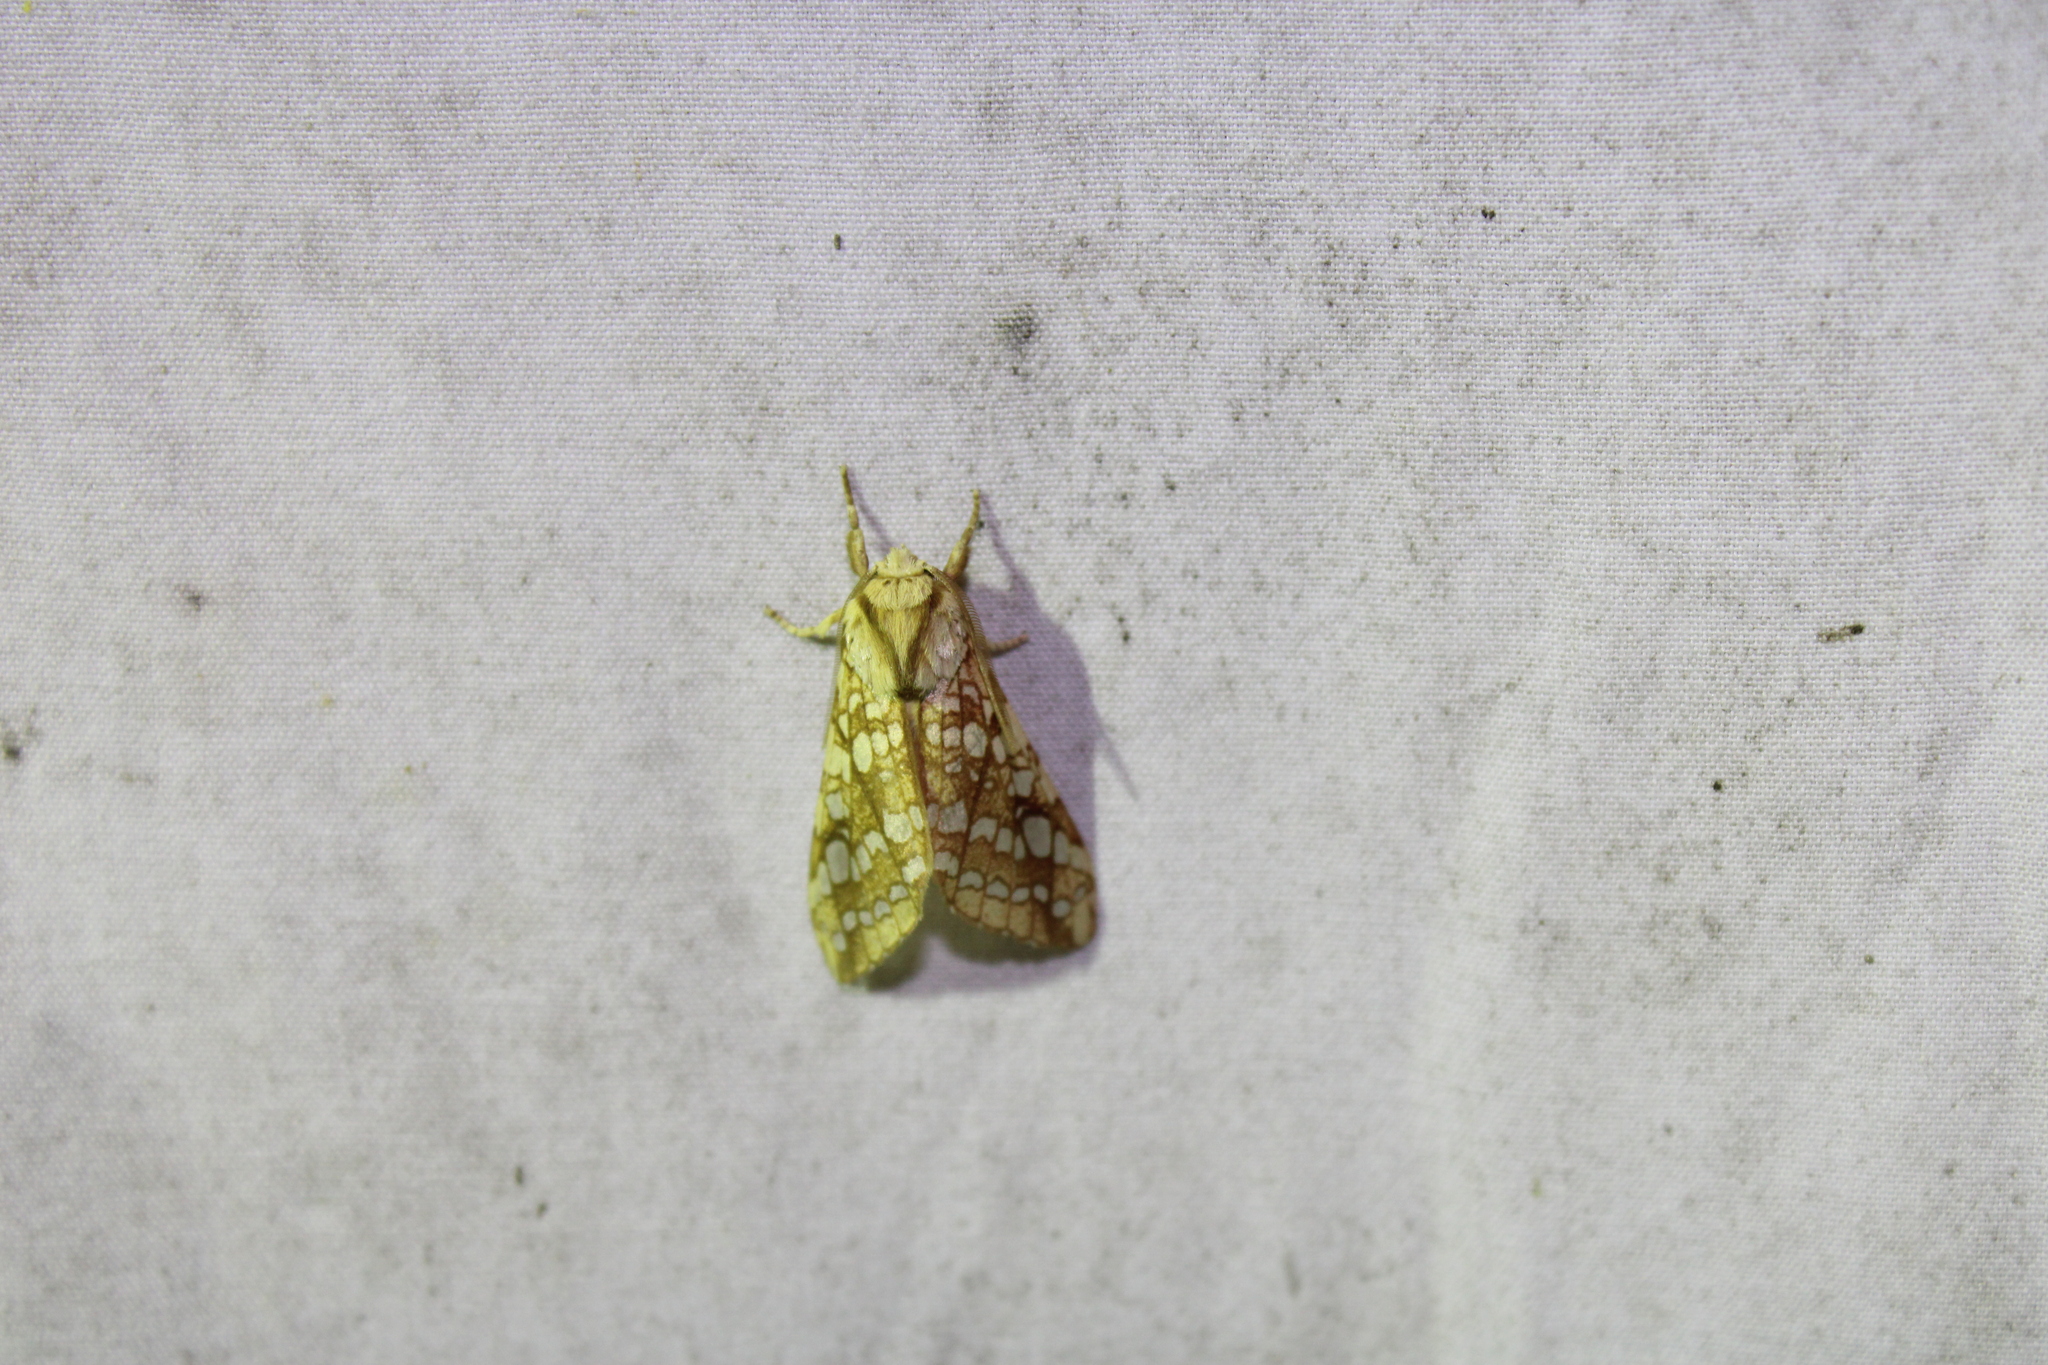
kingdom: Animalia
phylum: Arthropoda
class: Insecta
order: Lepidoptera
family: Erebidae
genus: Lophocampa
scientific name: Lophocampa caryae
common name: Hickory tussock moth
